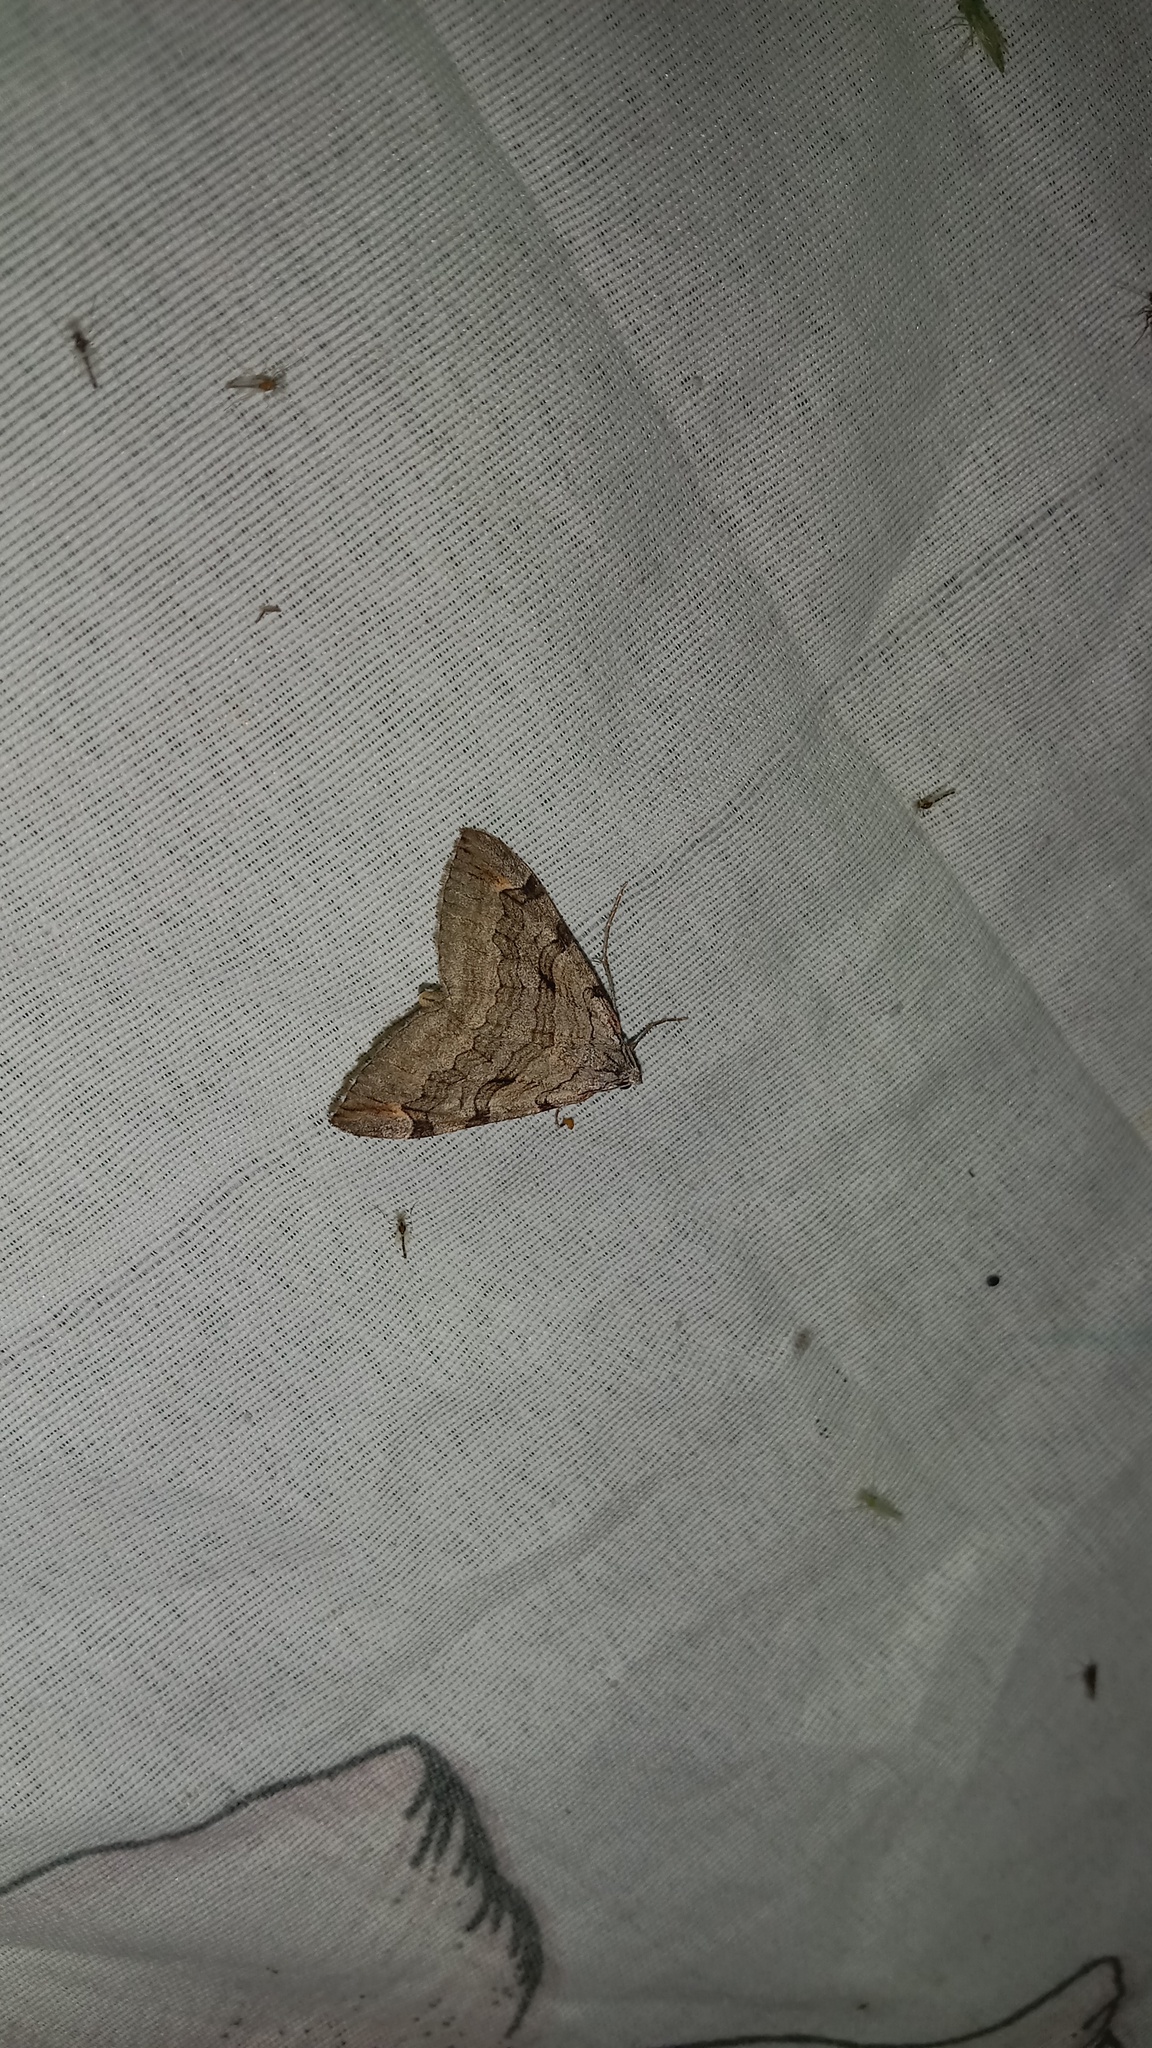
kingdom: Animalia
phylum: Arthropoda
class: Insecta
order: Lepidoptera
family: Geometridae
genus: Aplocera
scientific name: Aplocera plagiata
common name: Treble-bar
